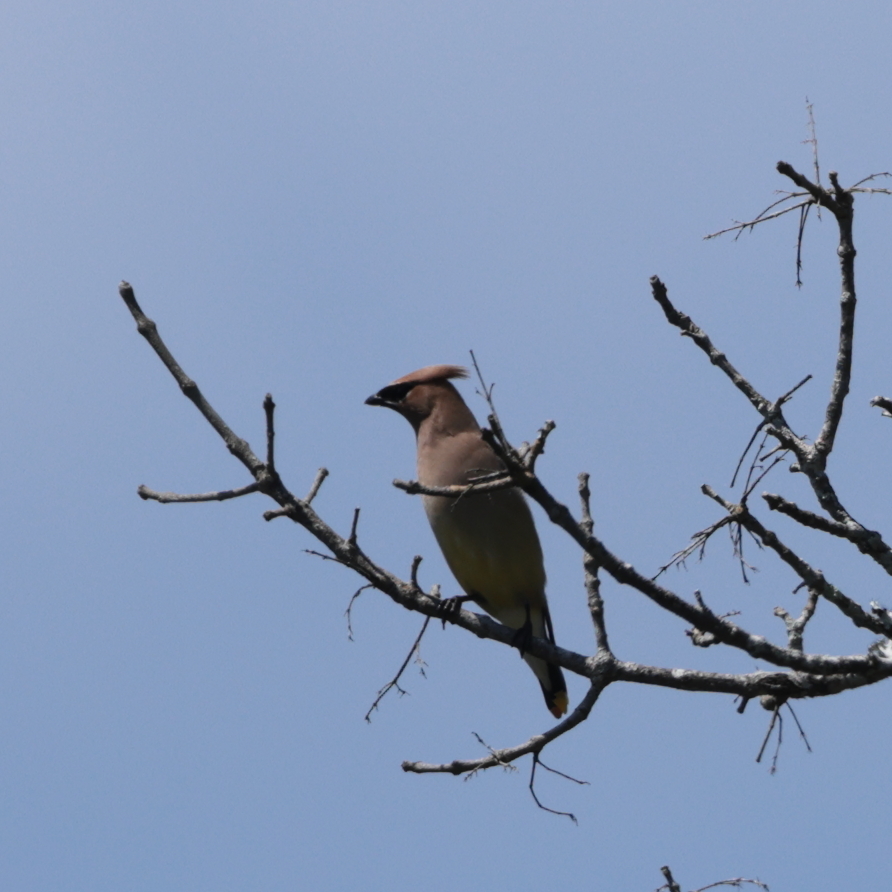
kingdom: Animalia
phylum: Chordata
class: Aves
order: Passeriformes
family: Bombycillidae
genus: Bombycilla
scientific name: Bombycilla cedrorum
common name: Cedar waxwing
